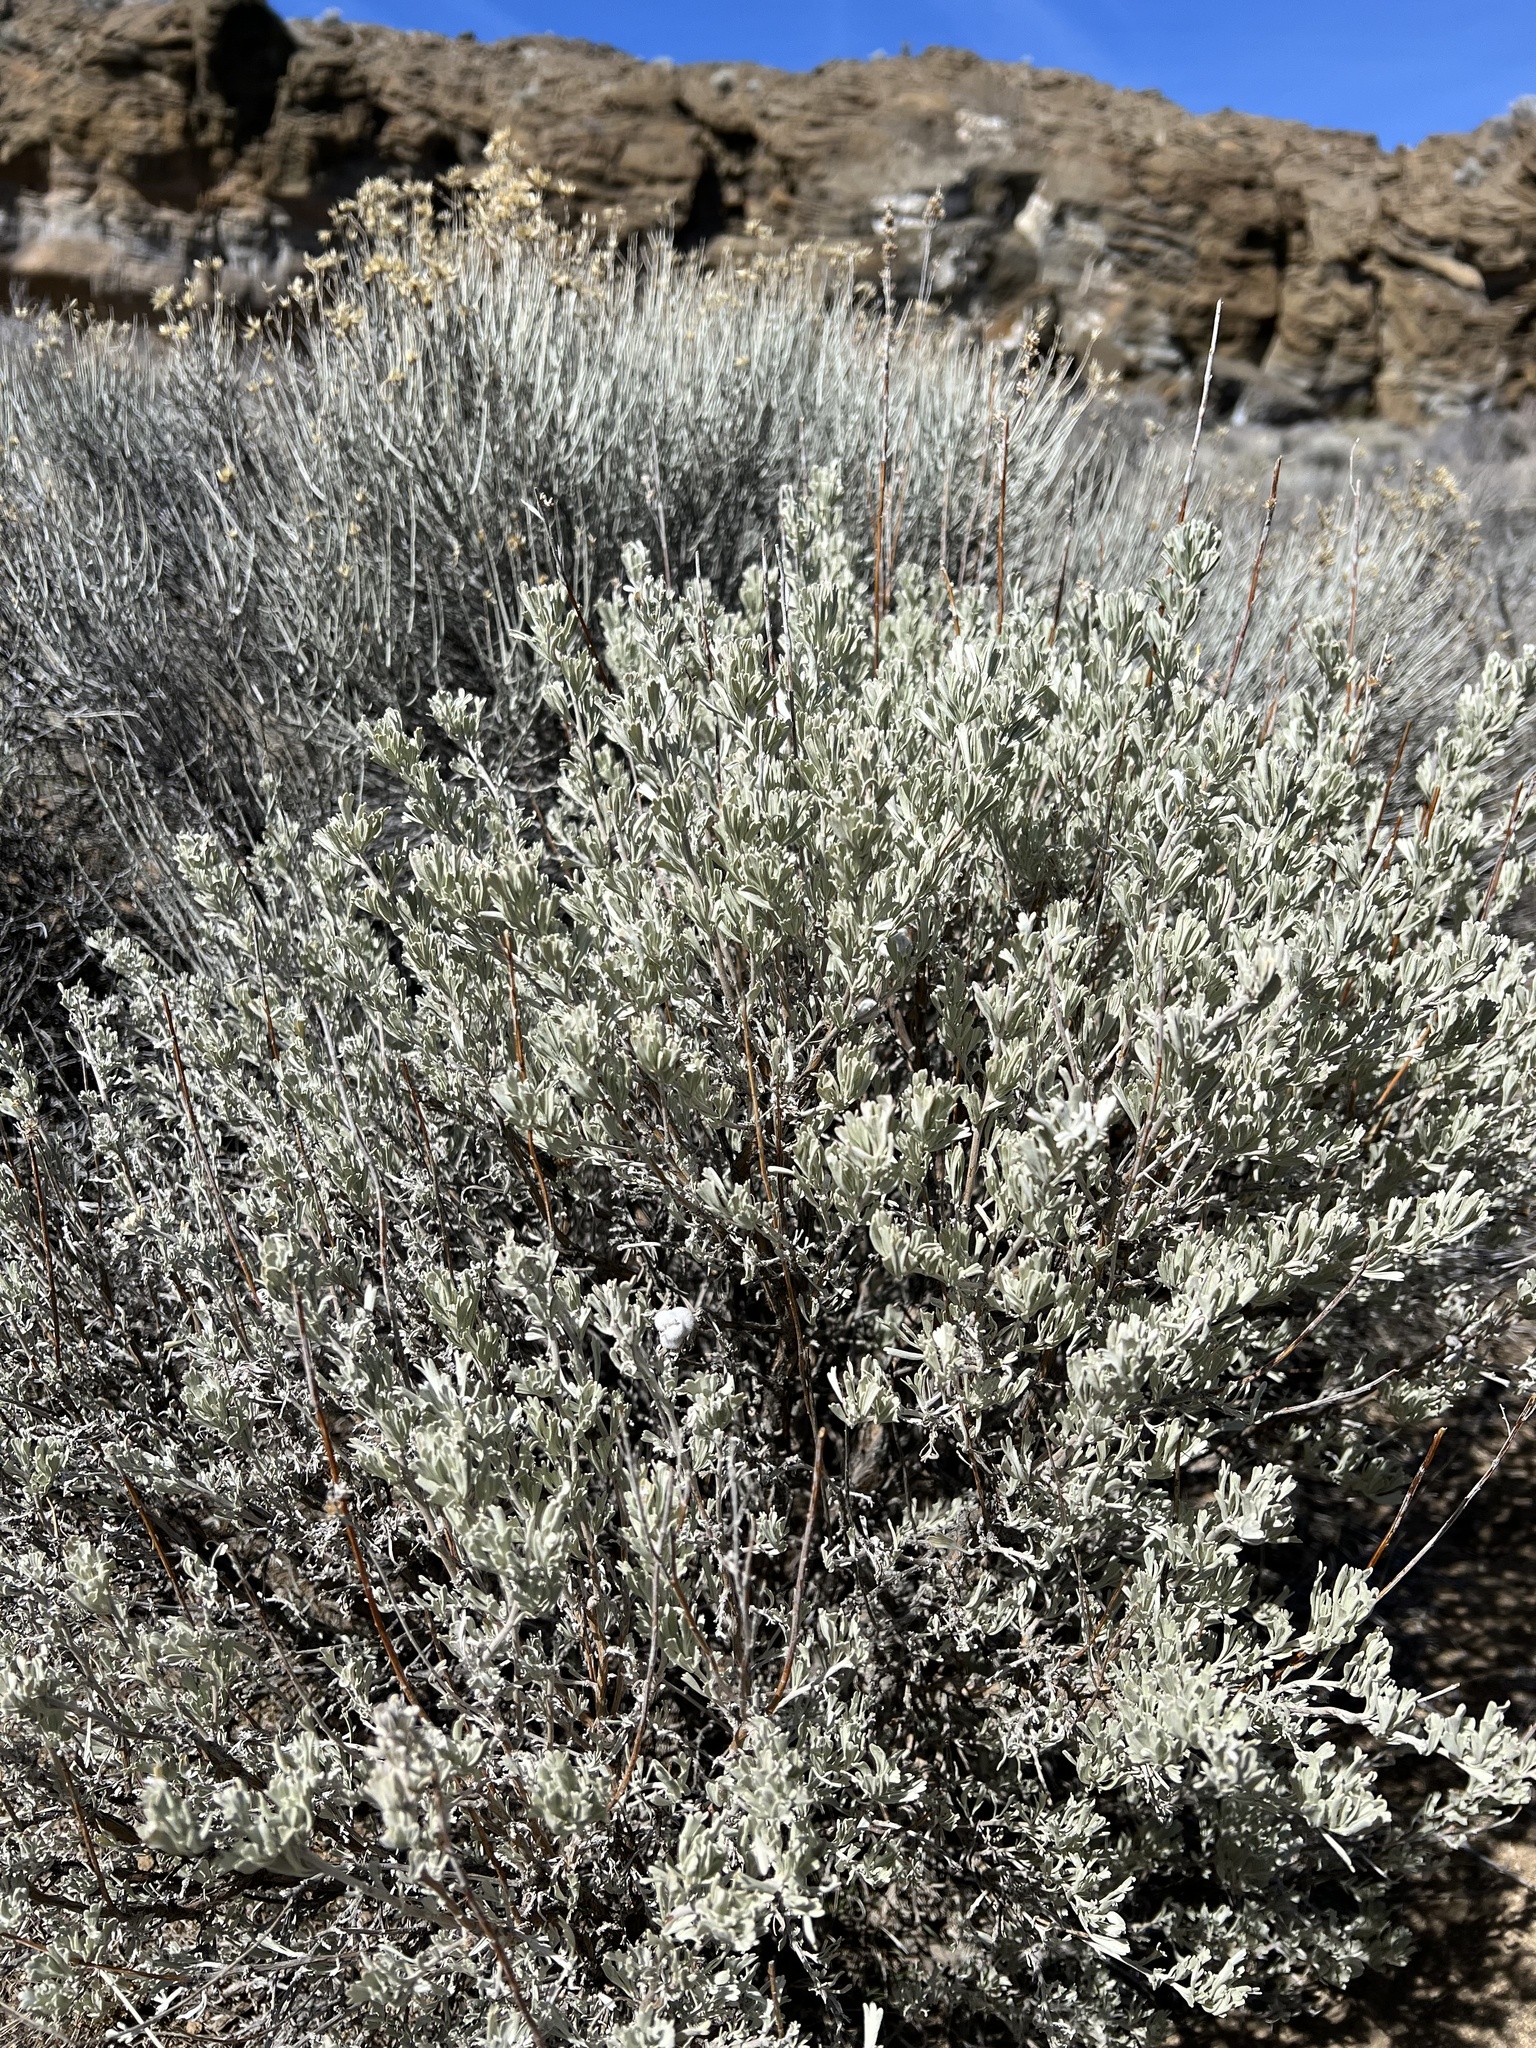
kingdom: Plantae
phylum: Tracheophyta
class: Magnoliopsida
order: Asterales
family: Asteraceae
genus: Artemisia
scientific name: Artemisia tridentata
